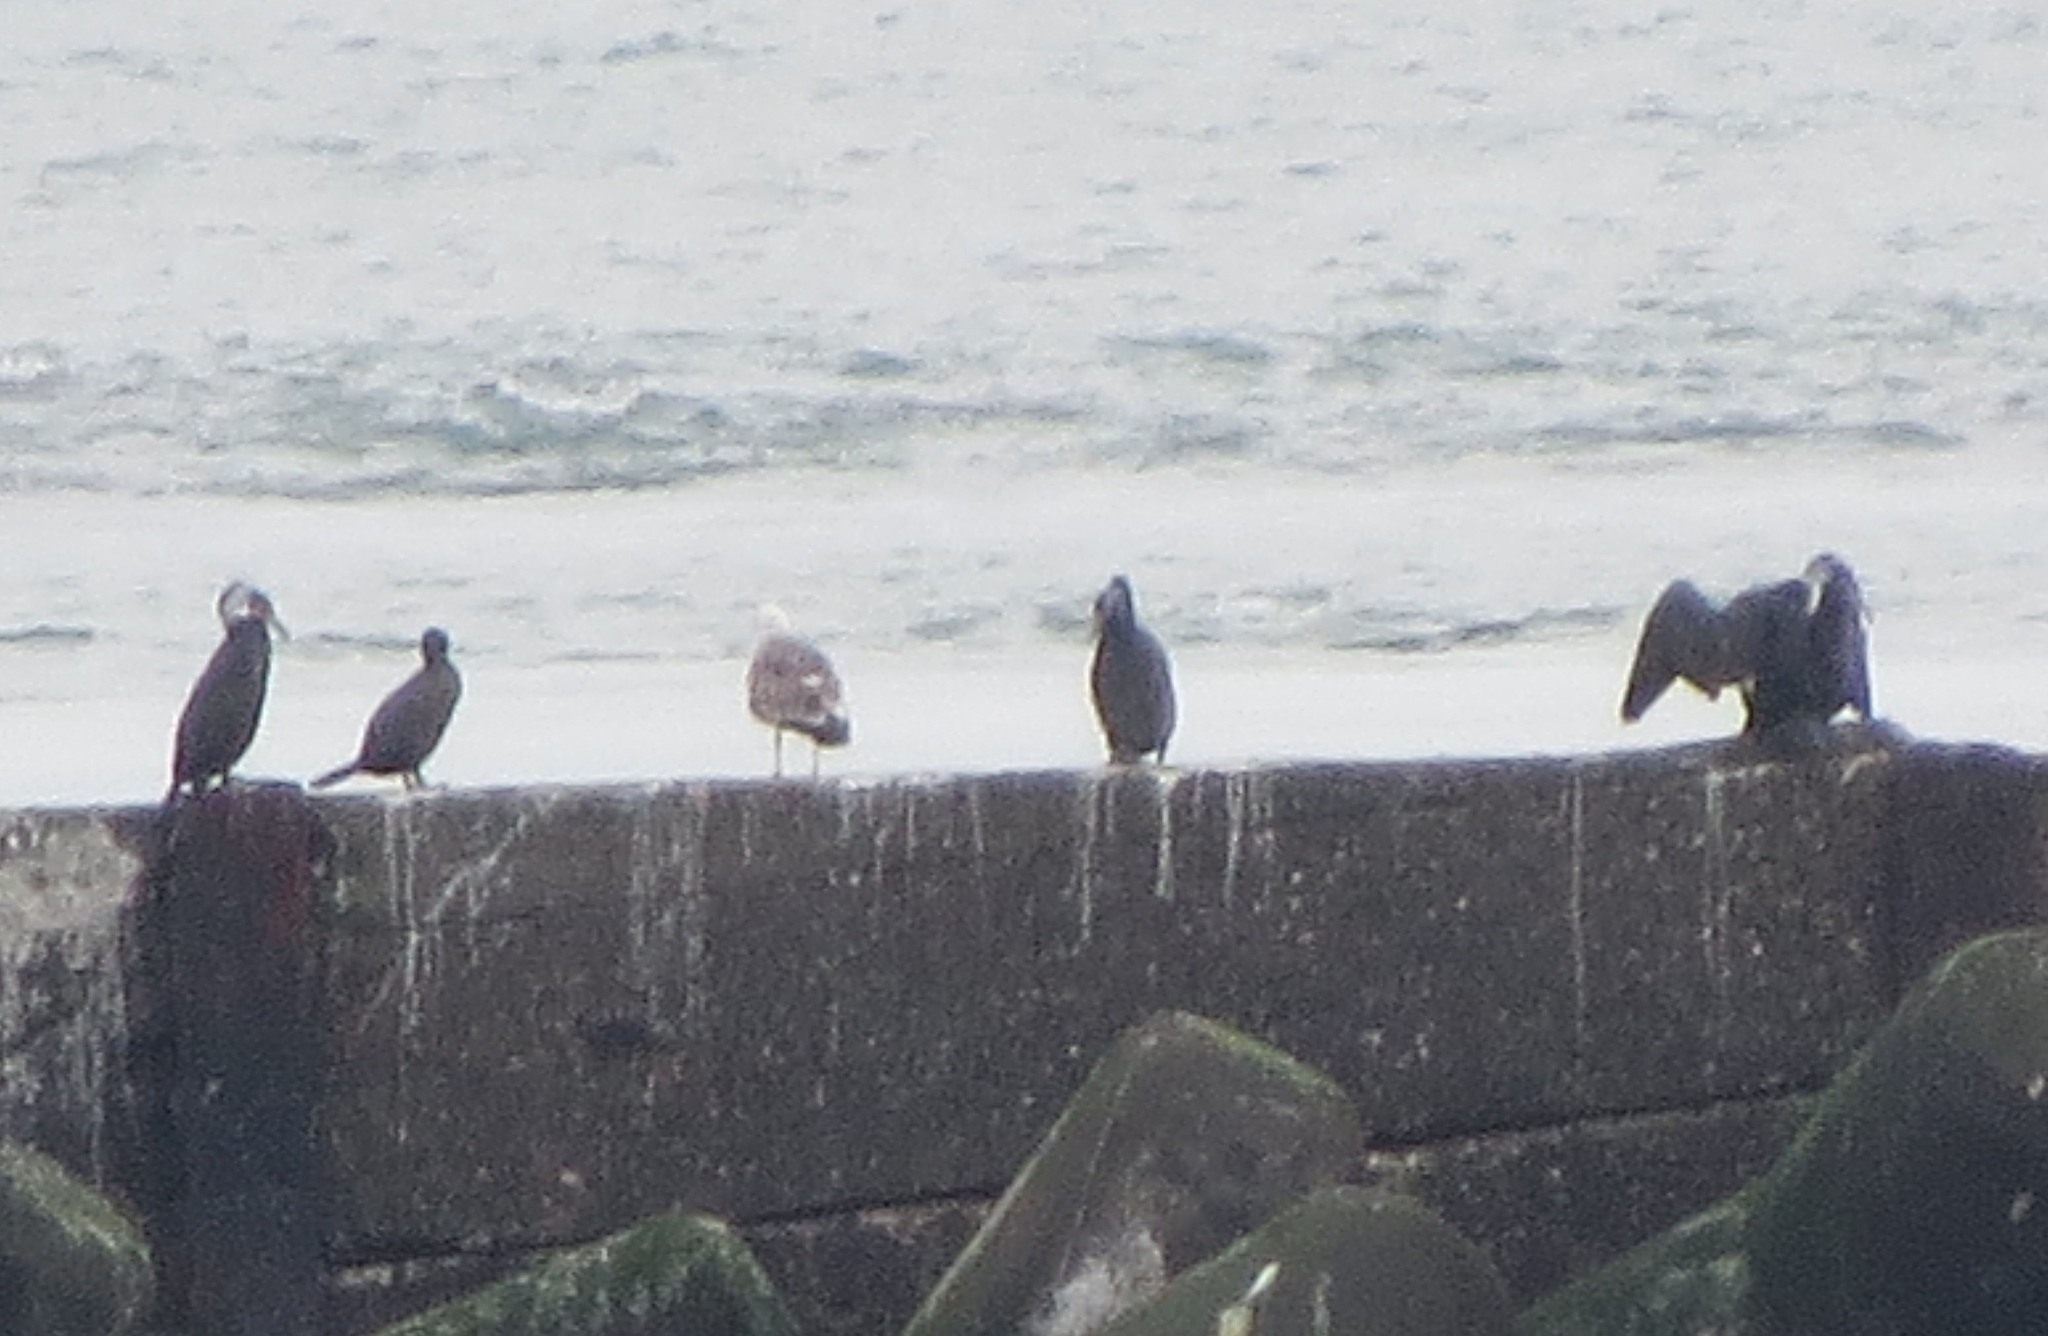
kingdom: Animalia
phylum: Chordata
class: Aves
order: Suliformes
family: Phalacrocoracidae
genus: Phalacrocorax
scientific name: Phalacrocorax carbo
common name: Great cormorant
